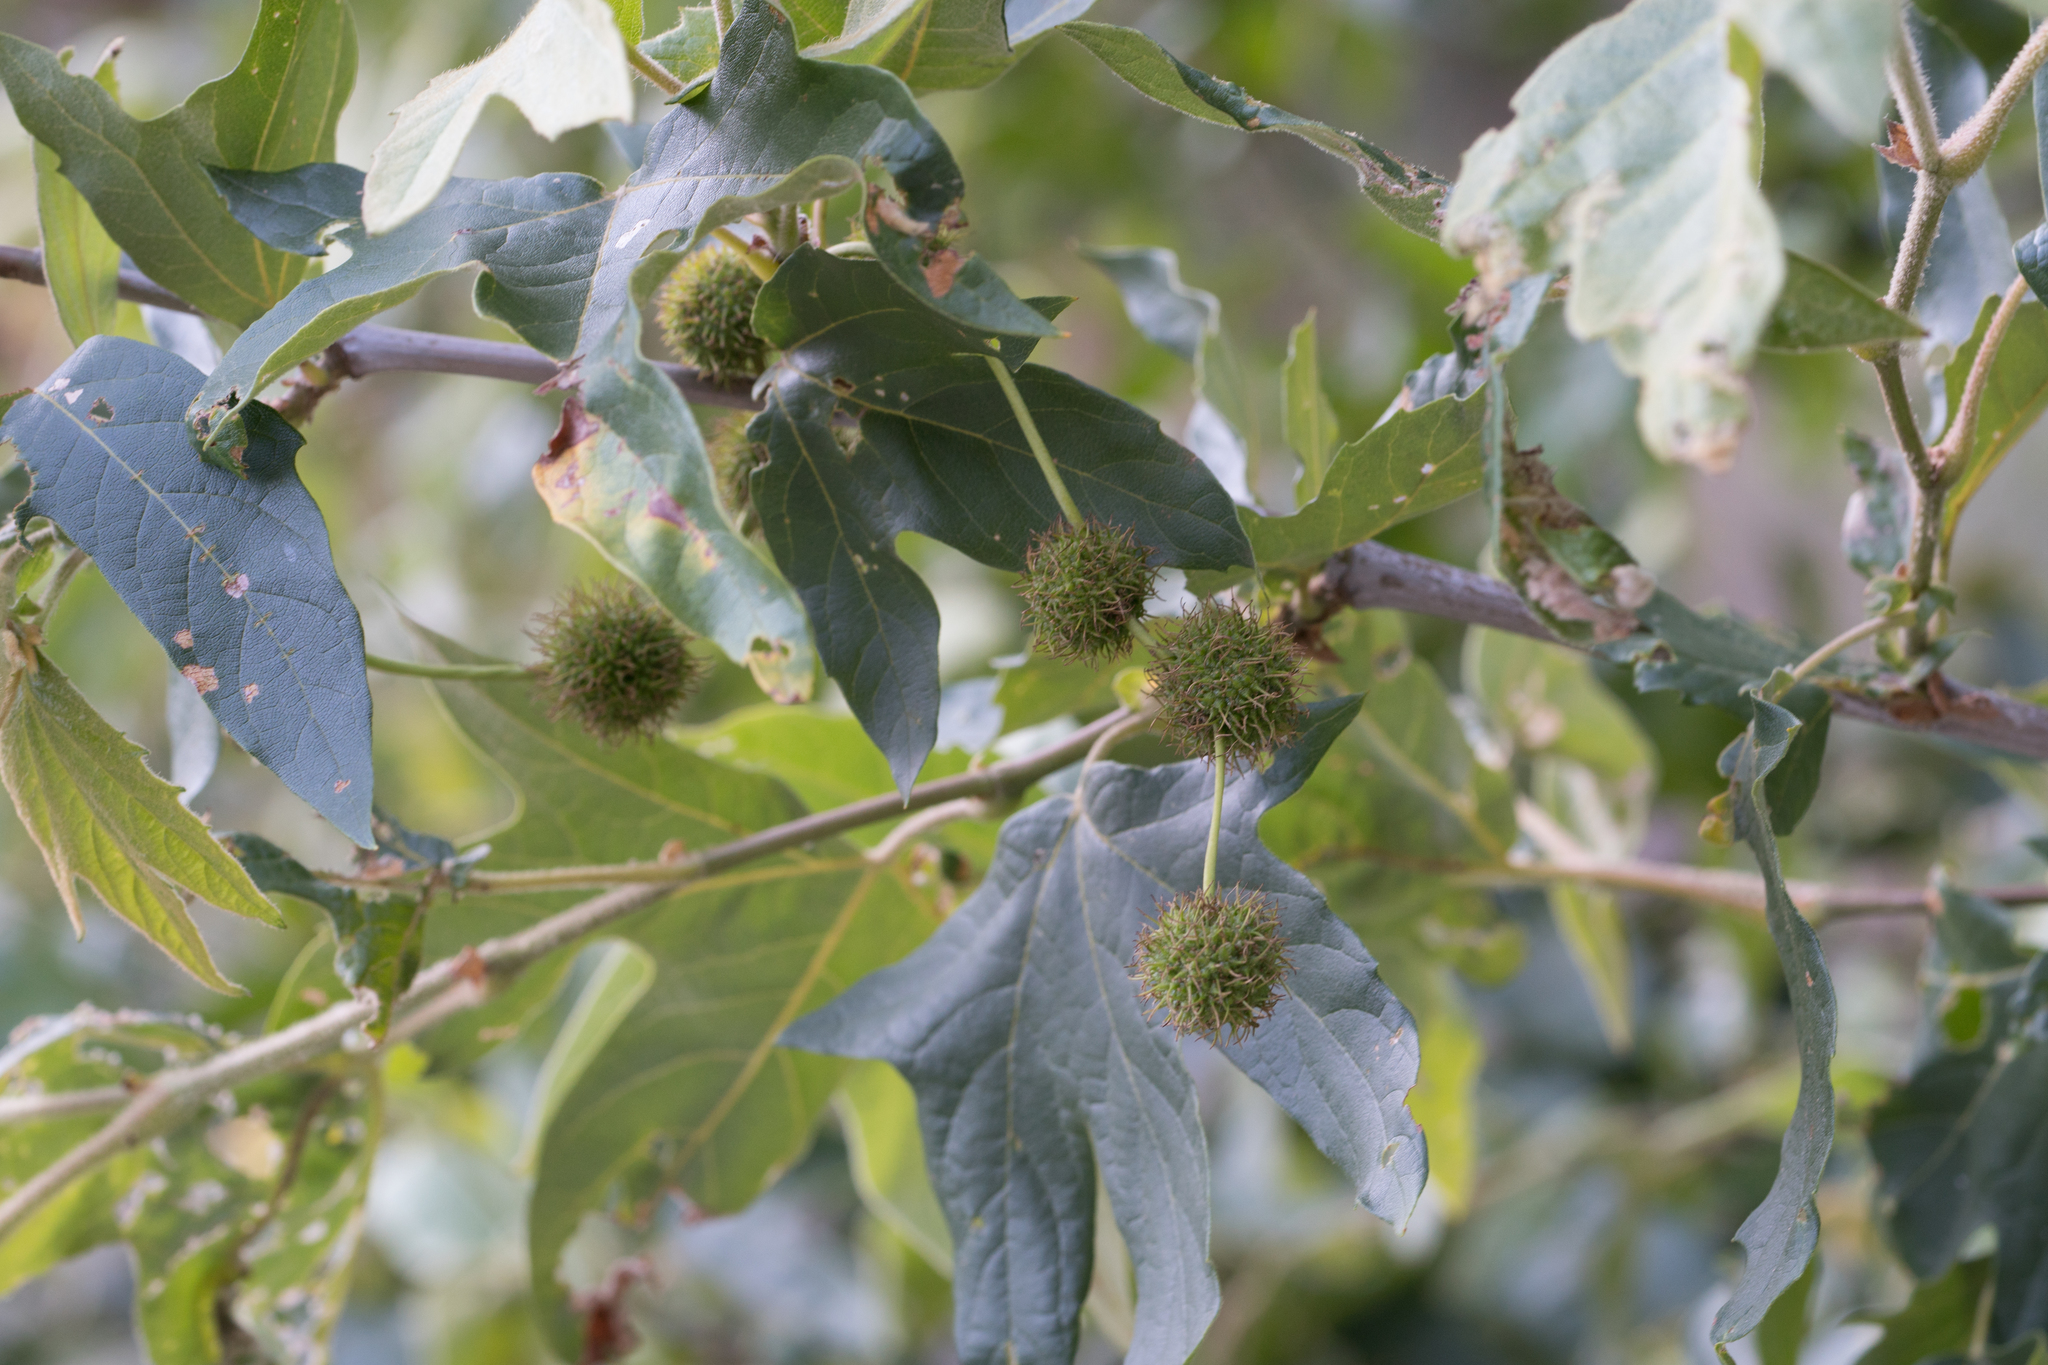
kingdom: Plantae
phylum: Tracheophyta
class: Magnoliopsida
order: Proteales
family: Platanaceae
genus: Platanus
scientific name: Platanus racemosa
